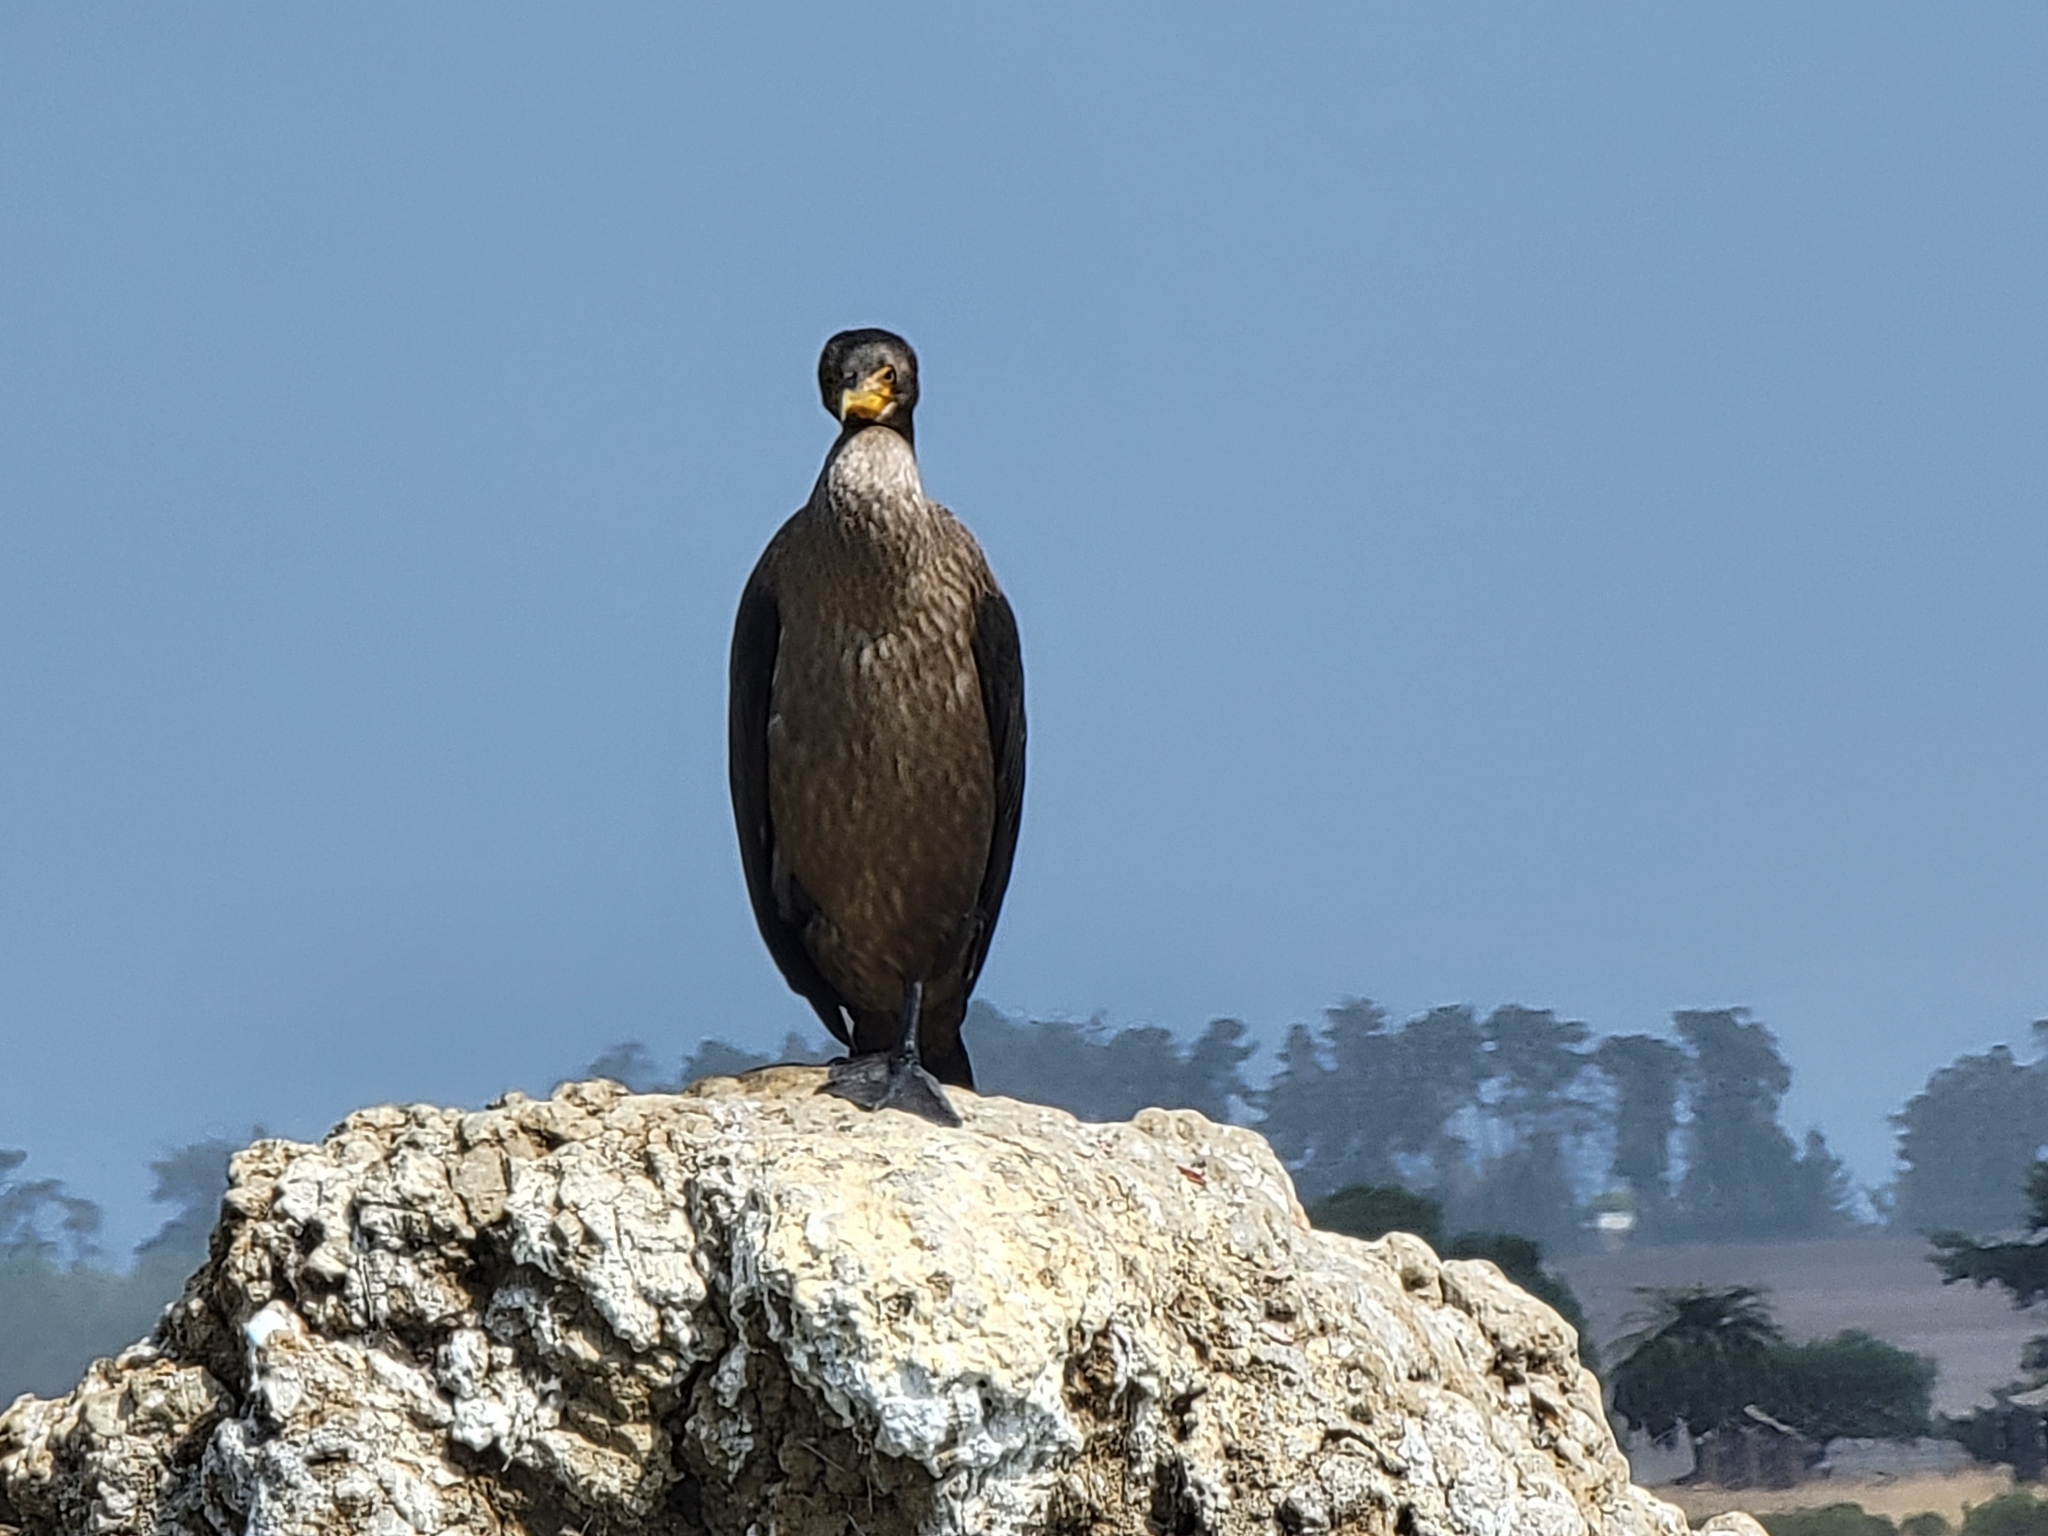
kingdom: Animalia
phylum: Chordata
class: Aves
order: Suliformes
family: Phalacrocoracidae
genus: Phalacrocorax
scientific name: Phalacrocorax auritus
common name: Double-crested cormorant
